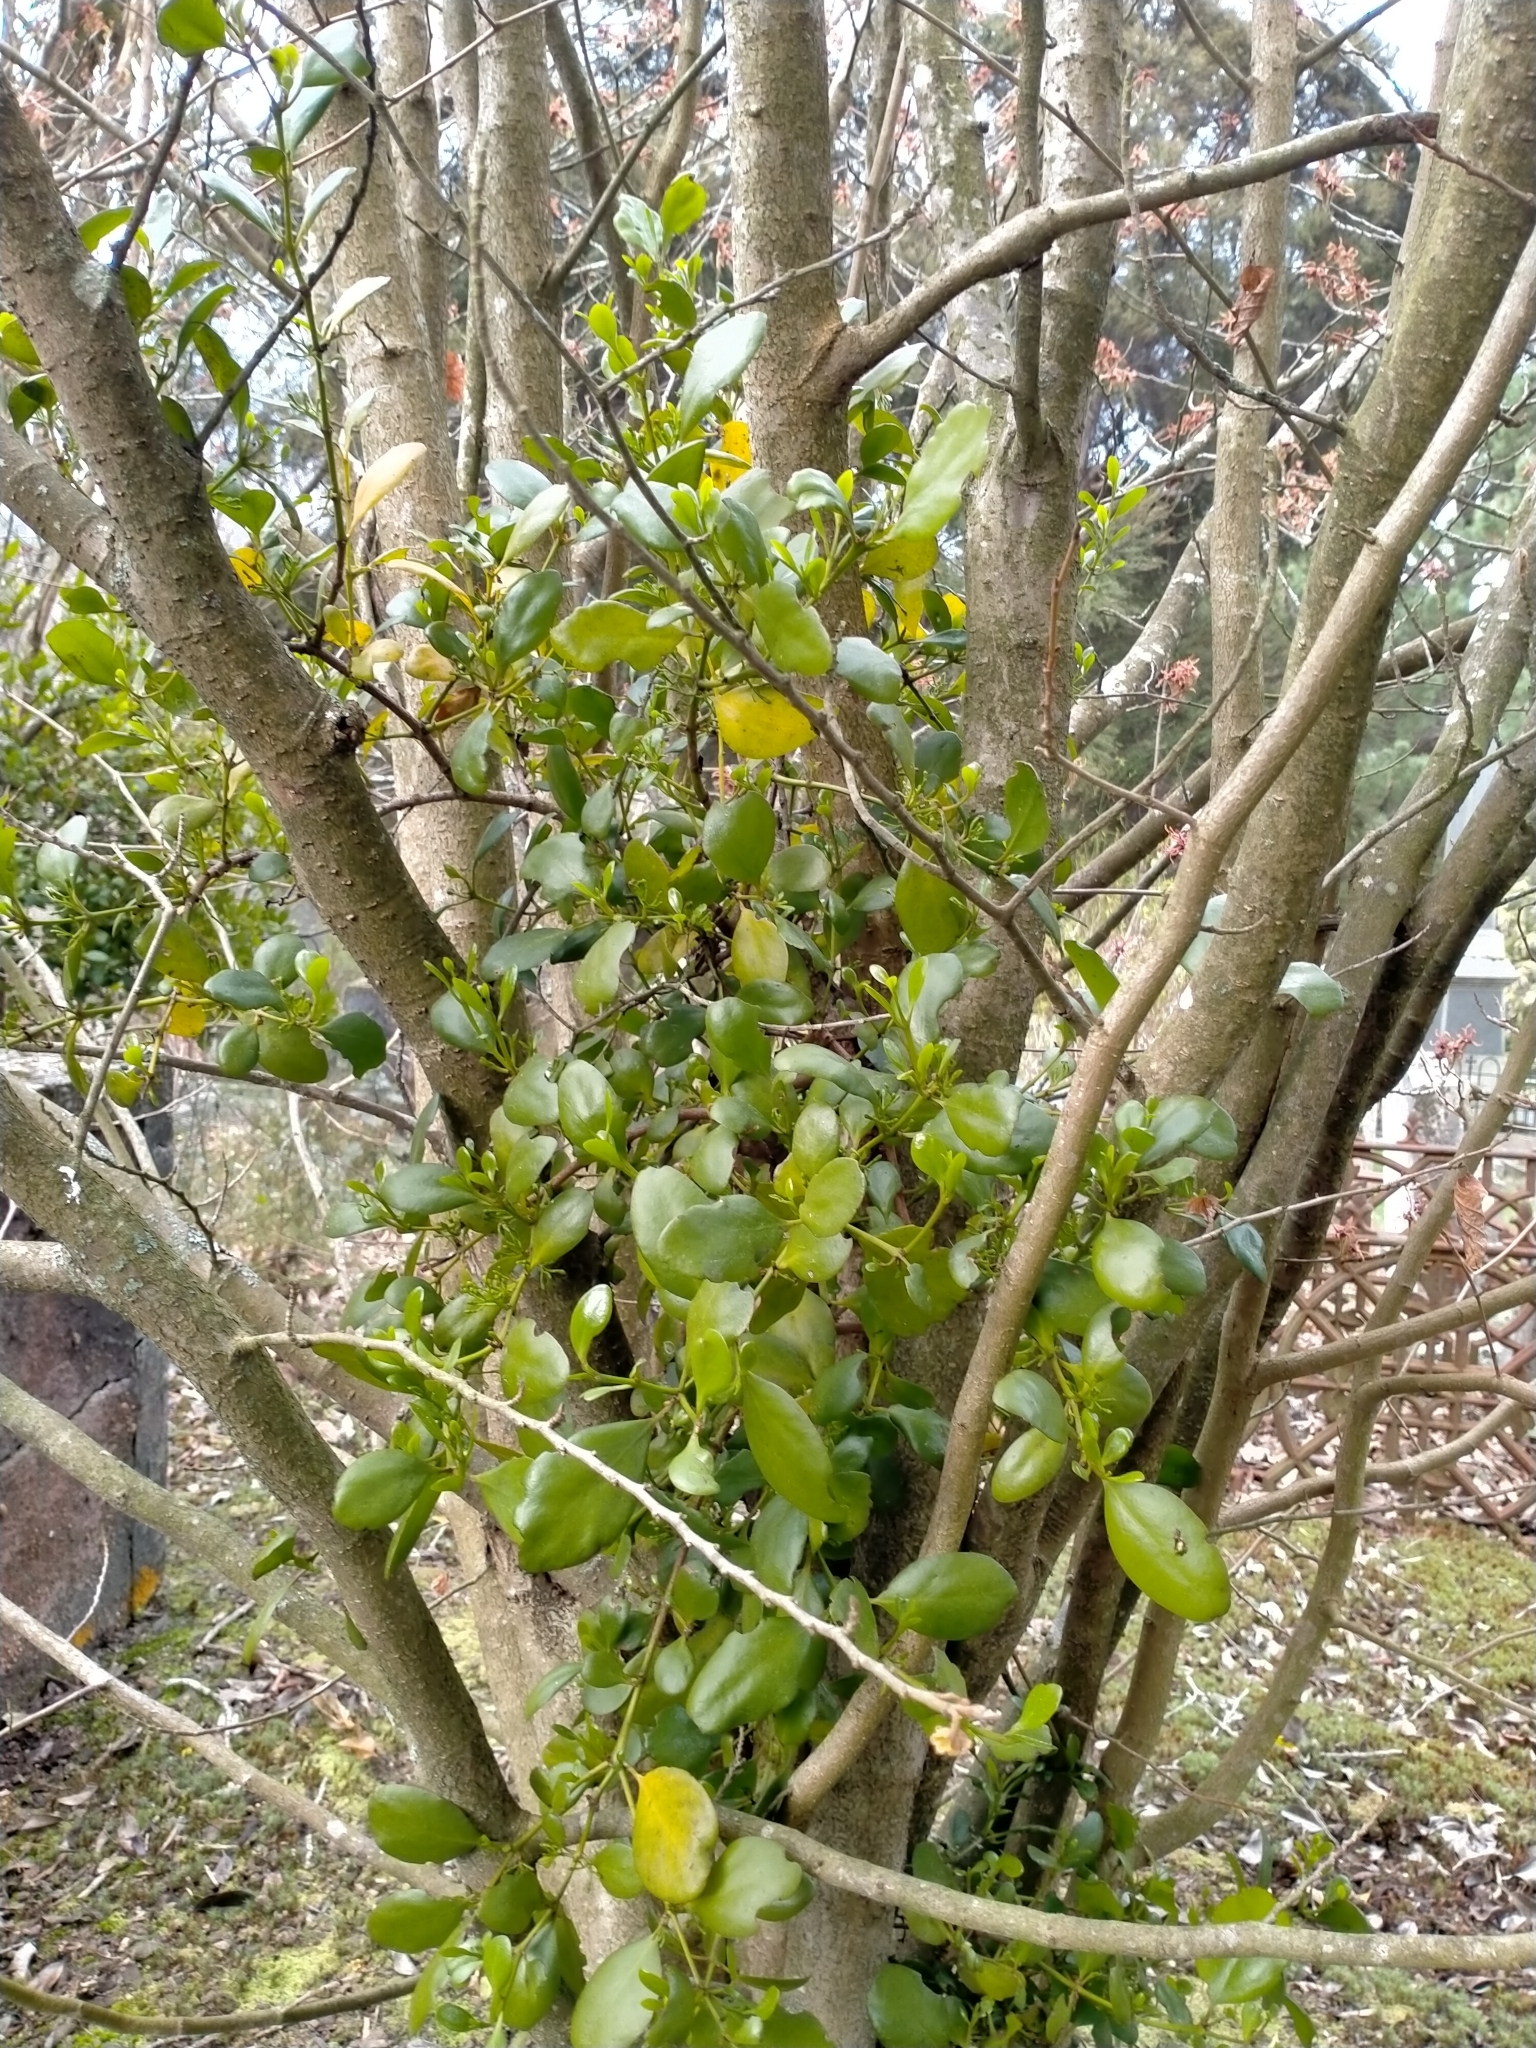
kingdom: Plantae
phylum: Tracheophyta
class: Magnoliopsida
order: Santalales
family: Loranthaceae
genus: Ileostylus
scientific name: Ileostylus micranthus
